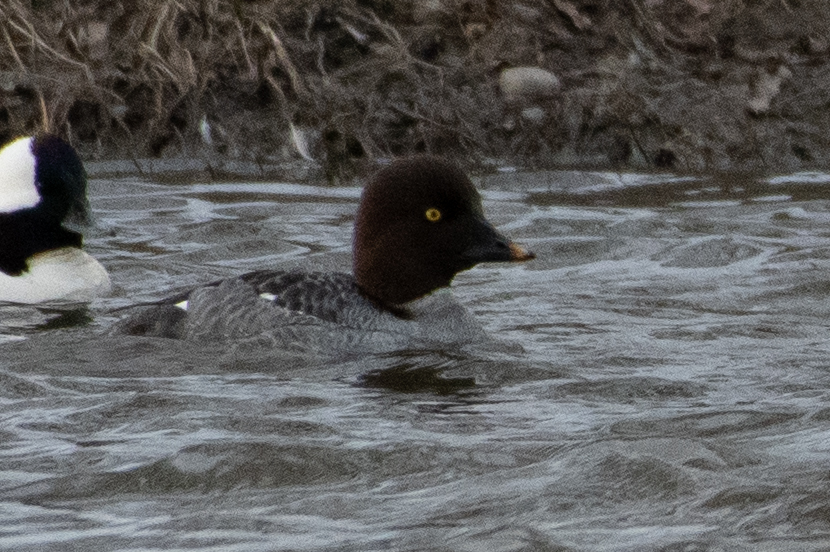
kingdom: Animalia
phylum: Chordata
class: Aves
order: Anseriformes
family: Anatidae
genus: Bucephala
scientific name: Bucephala clangula
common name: Common goldeneye
